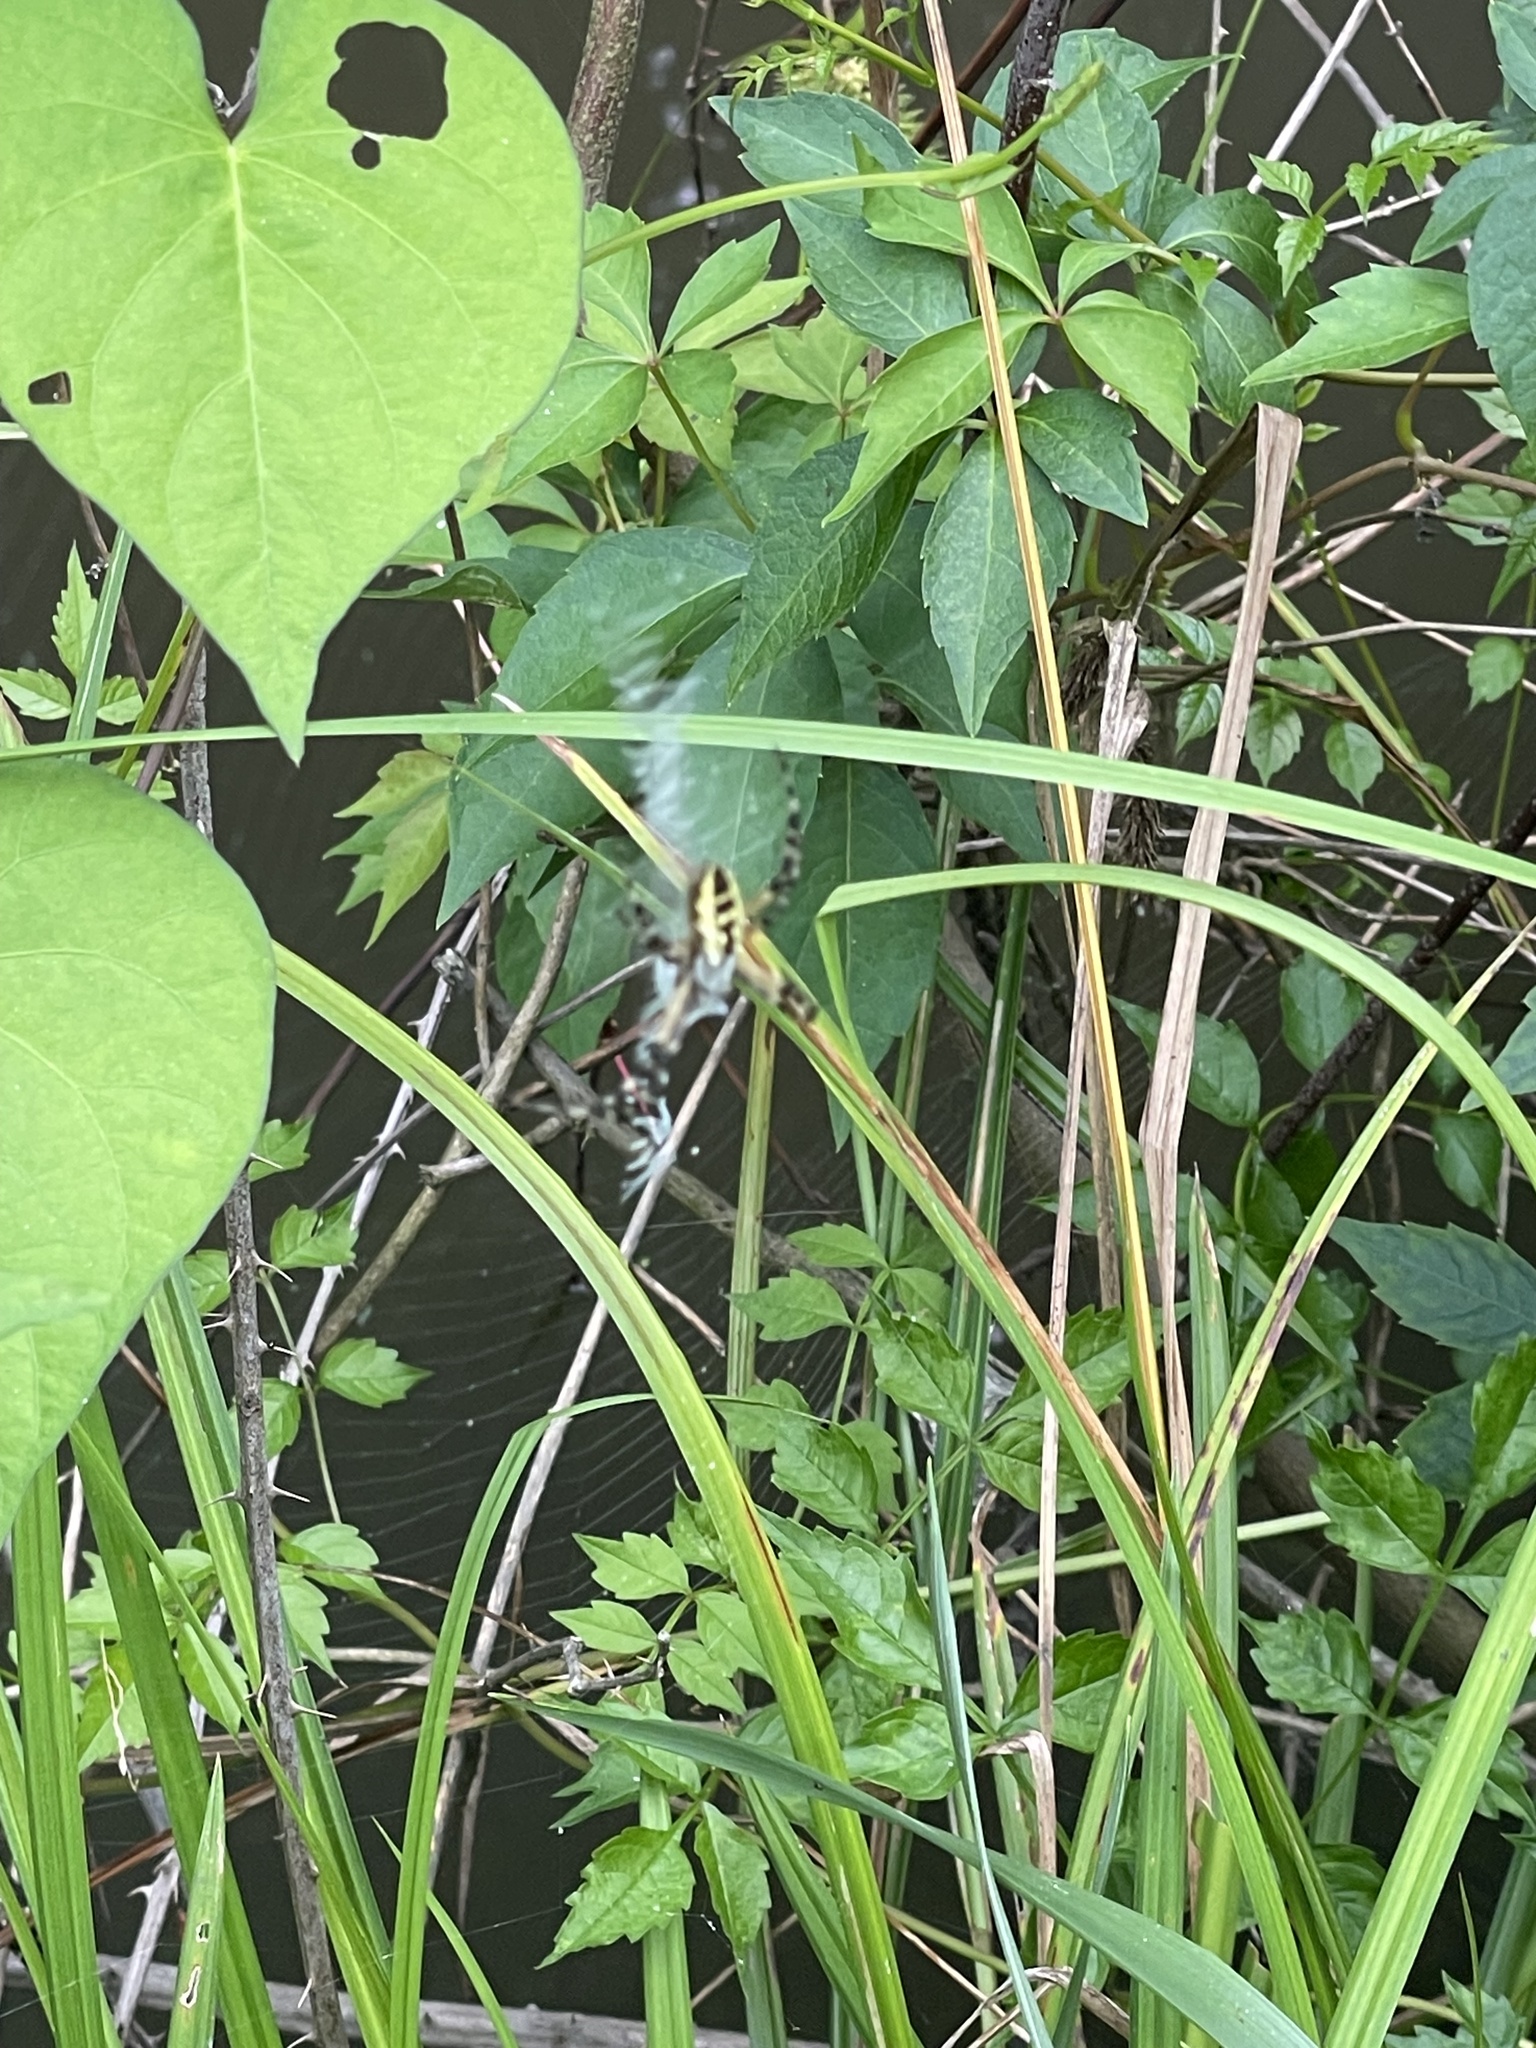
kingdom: Animalia
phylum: Arthropoda
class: Arachnida
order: Araneae
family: Araneidae
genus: Argiope
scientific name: Argiope aurantia
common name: Orb weavers
